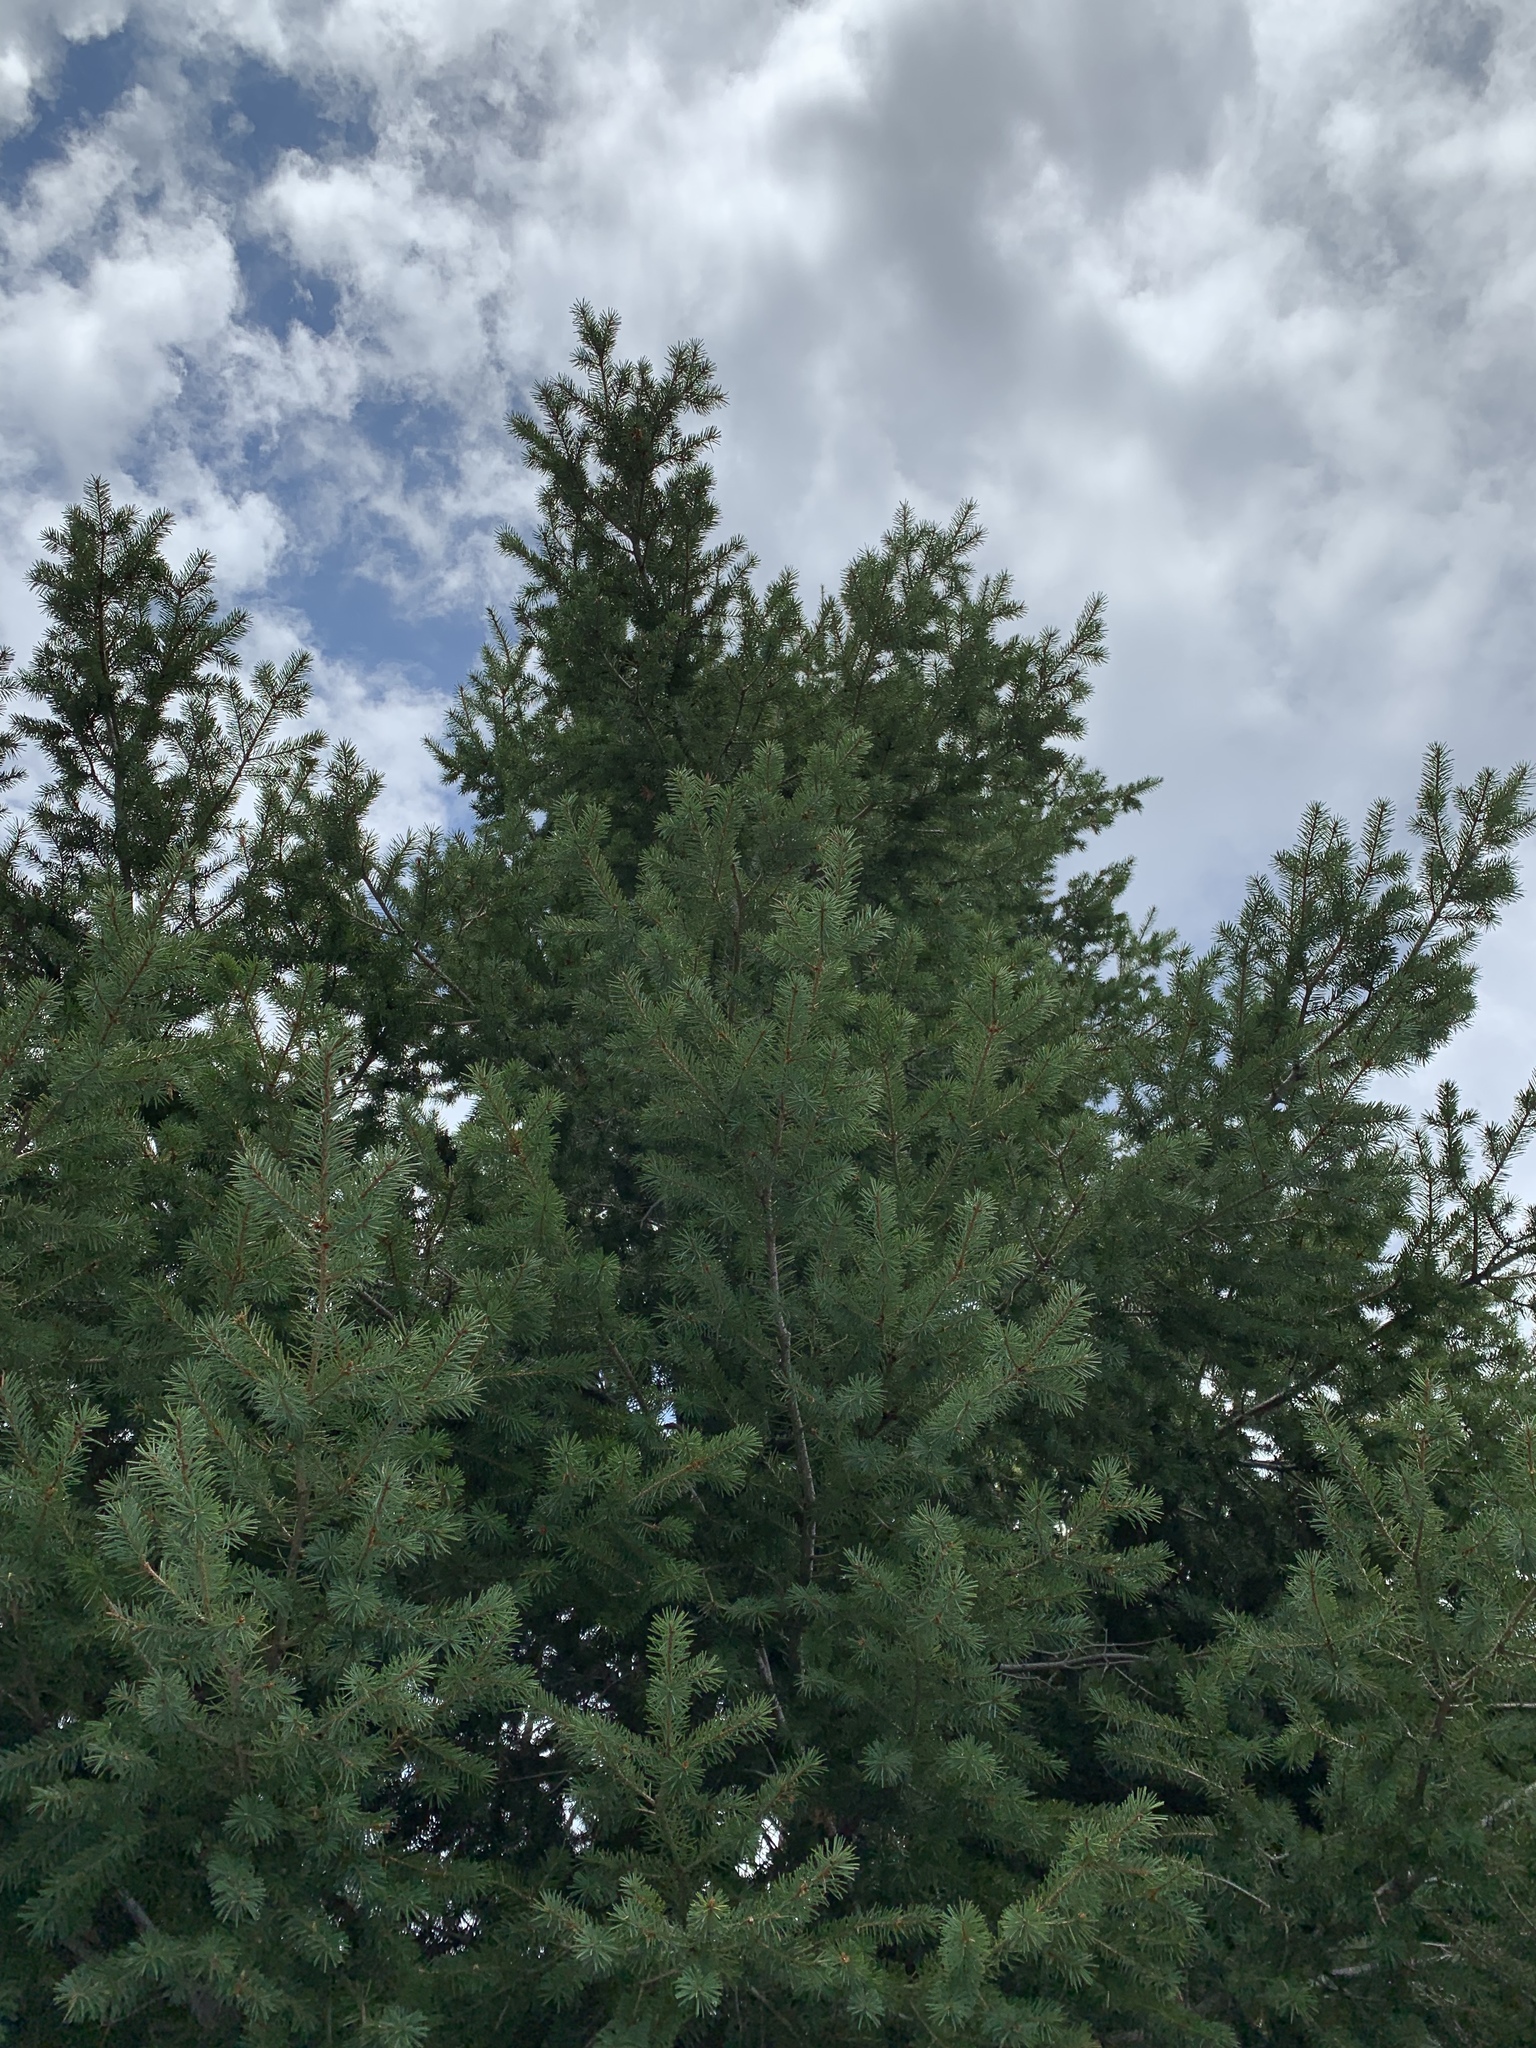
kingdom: Plantae
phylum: Tracheophyta
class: Pinopsida
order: Pinales
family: Pinaceae
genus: Pseudotsuga
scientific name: Pseudotsuga menziesii
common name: Douglas fir
